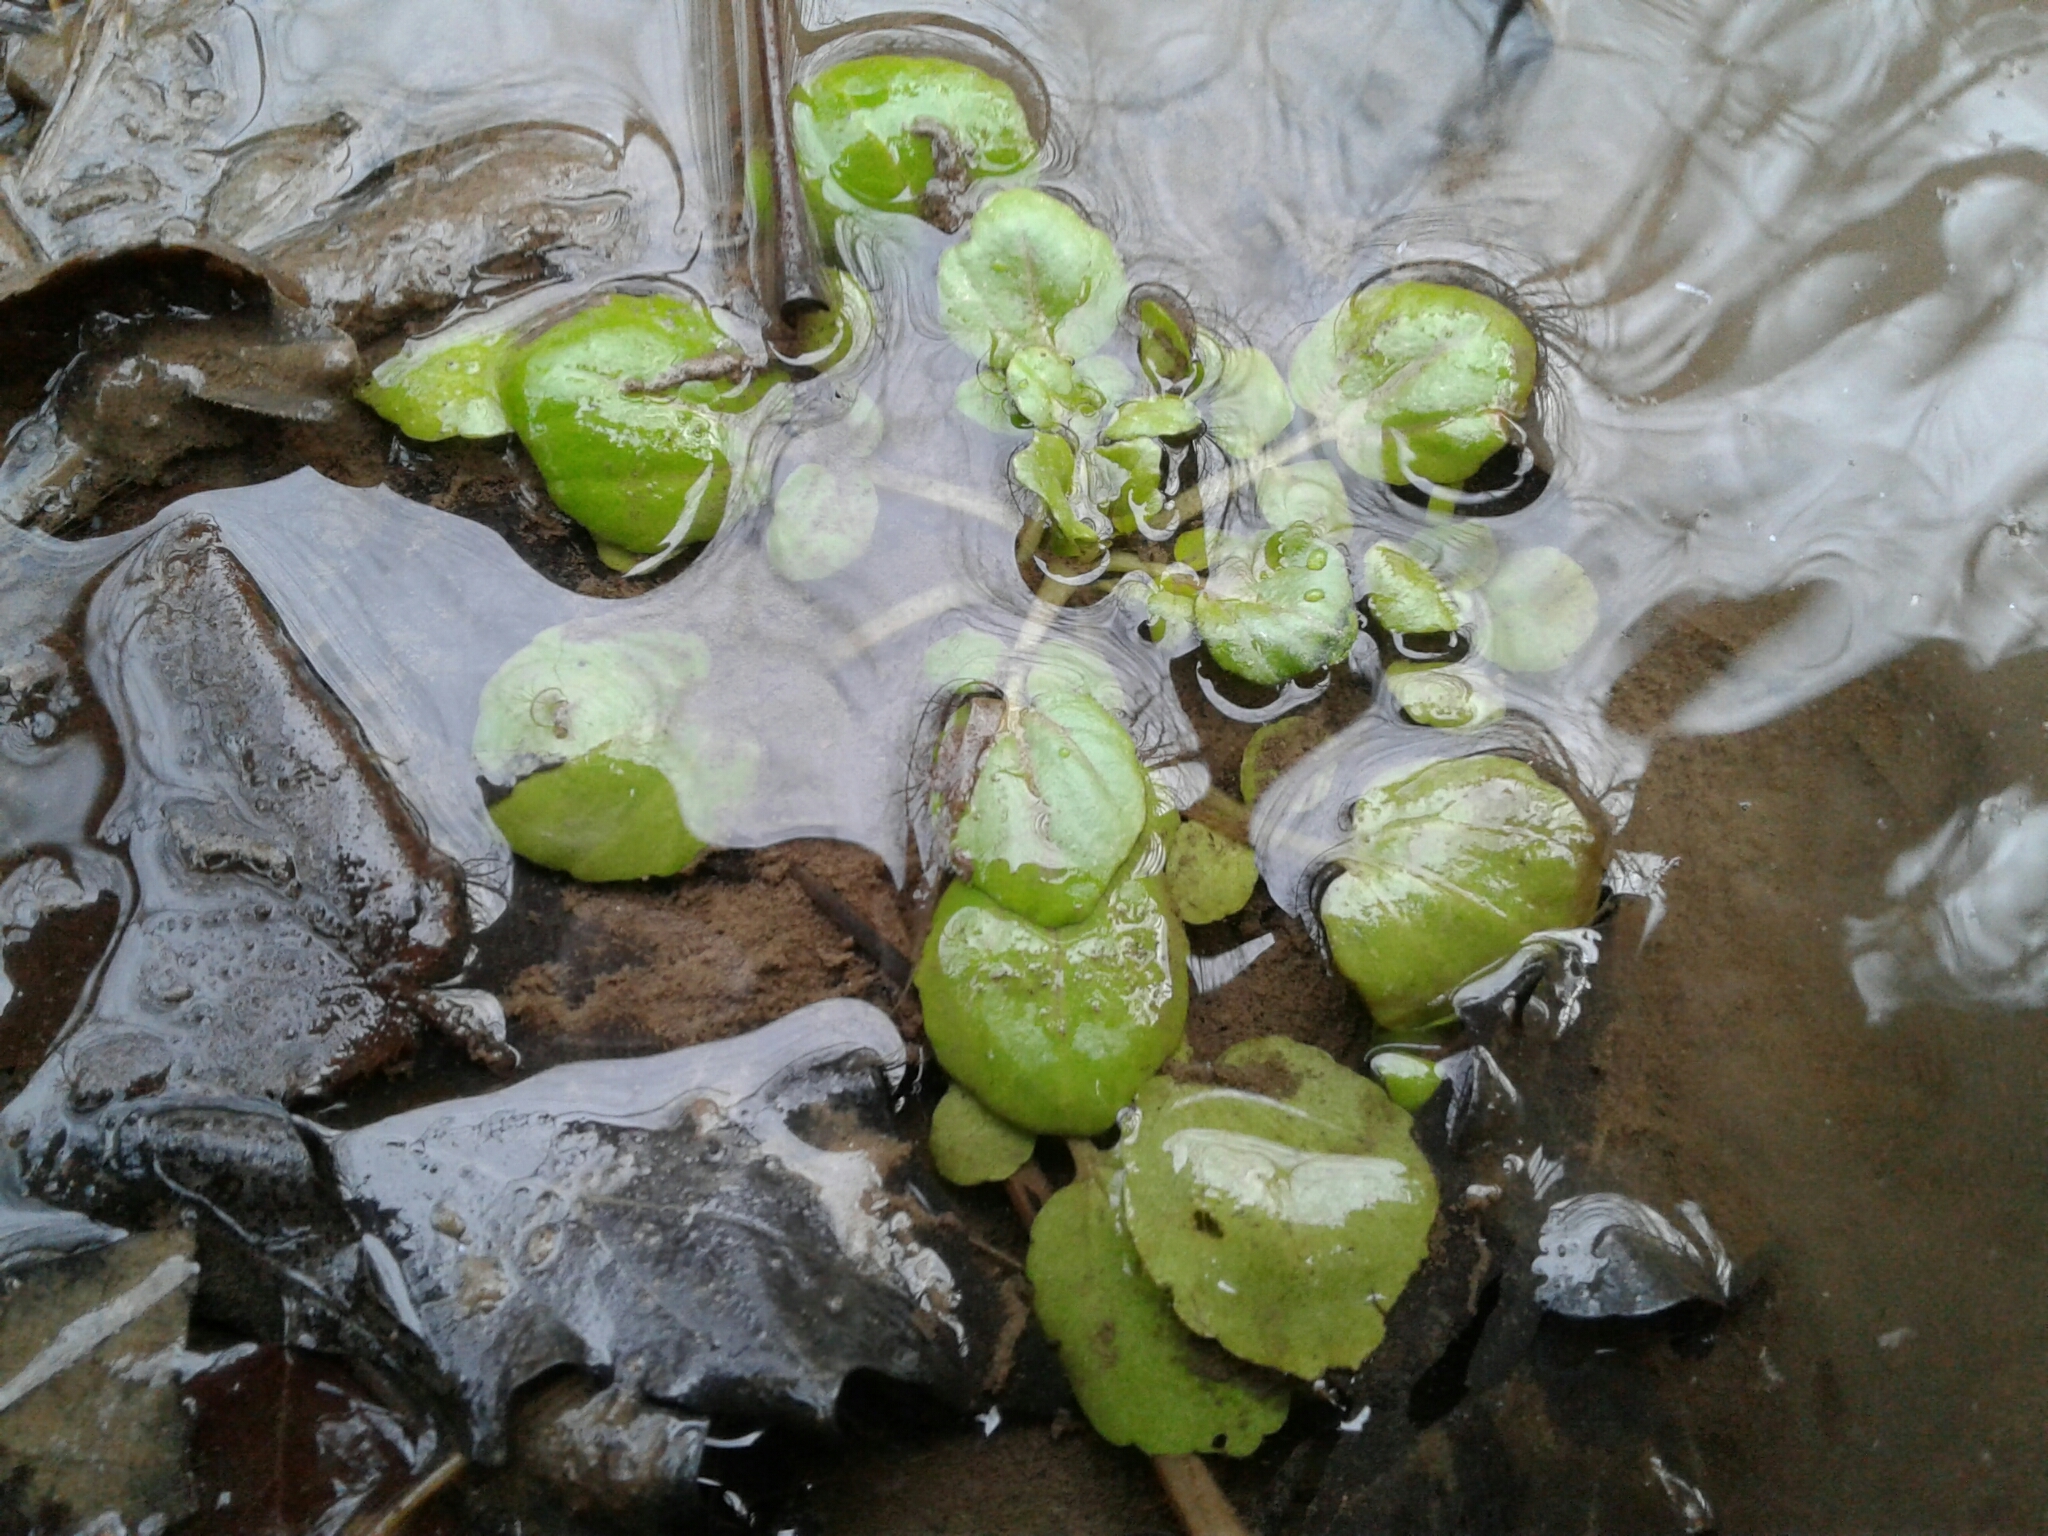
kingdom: Plantae
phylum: Tracheophyta
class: Magnoliopsida
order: Brassicales
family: Brassicaceae
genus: Nasturtium
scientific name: Nasturtium officinale
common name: Watercress
